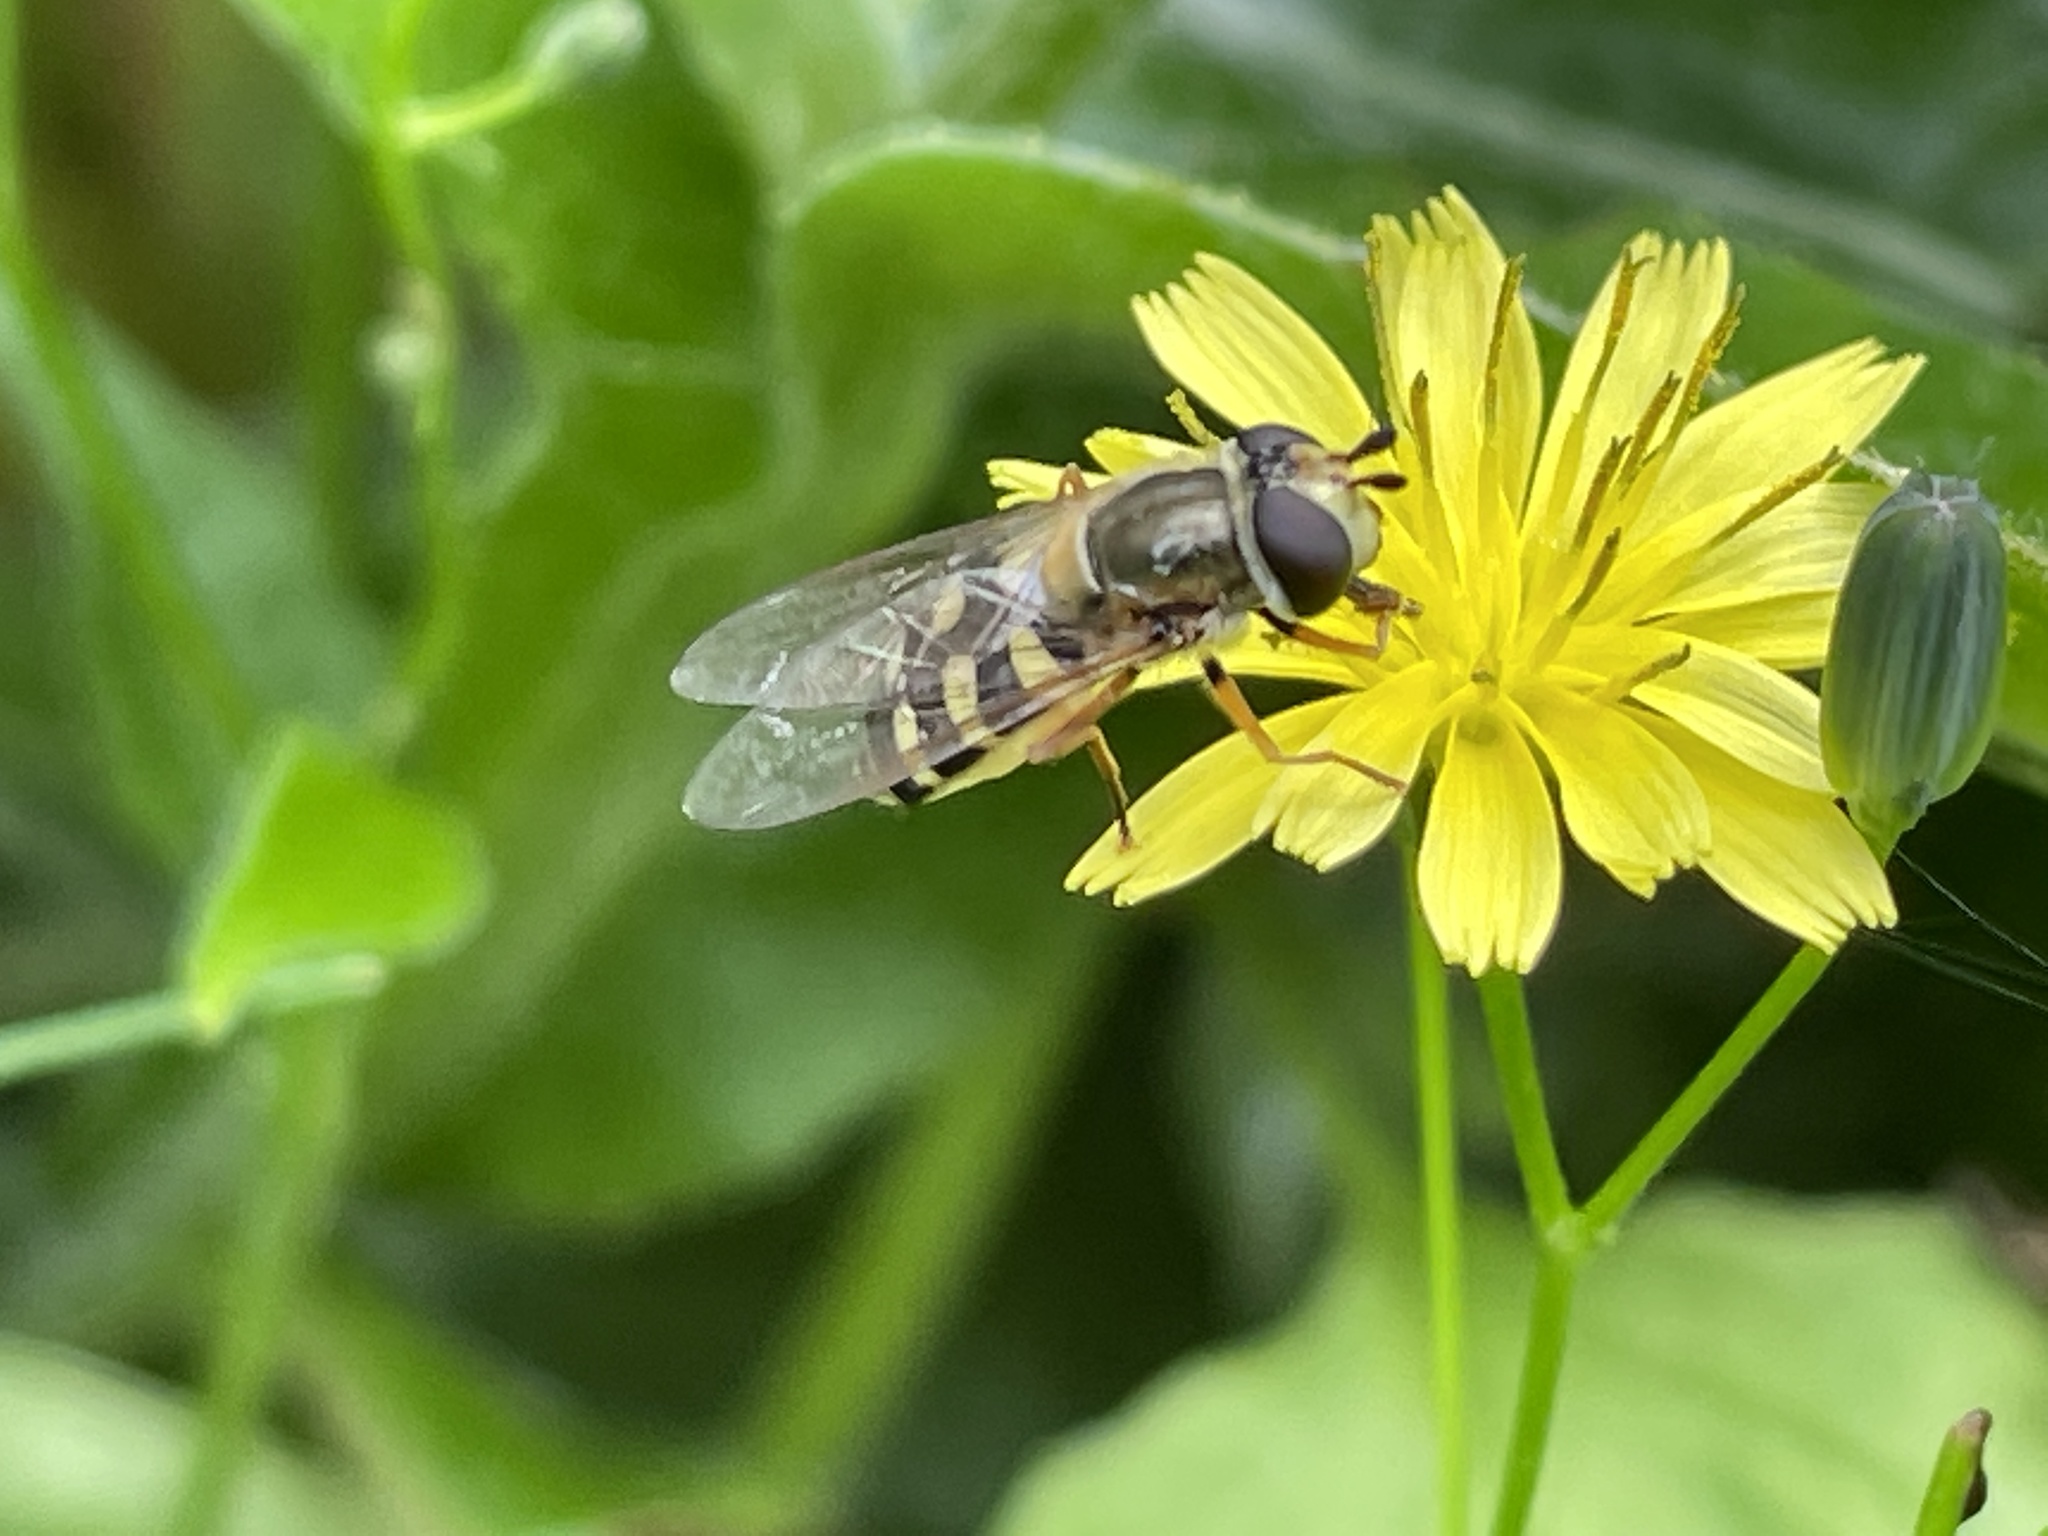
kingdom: Animalia
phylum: Arthropoda
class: Insecta
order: Diptera
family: Syrphidae
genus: Eupeodes
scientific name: Eupeodes corollae
